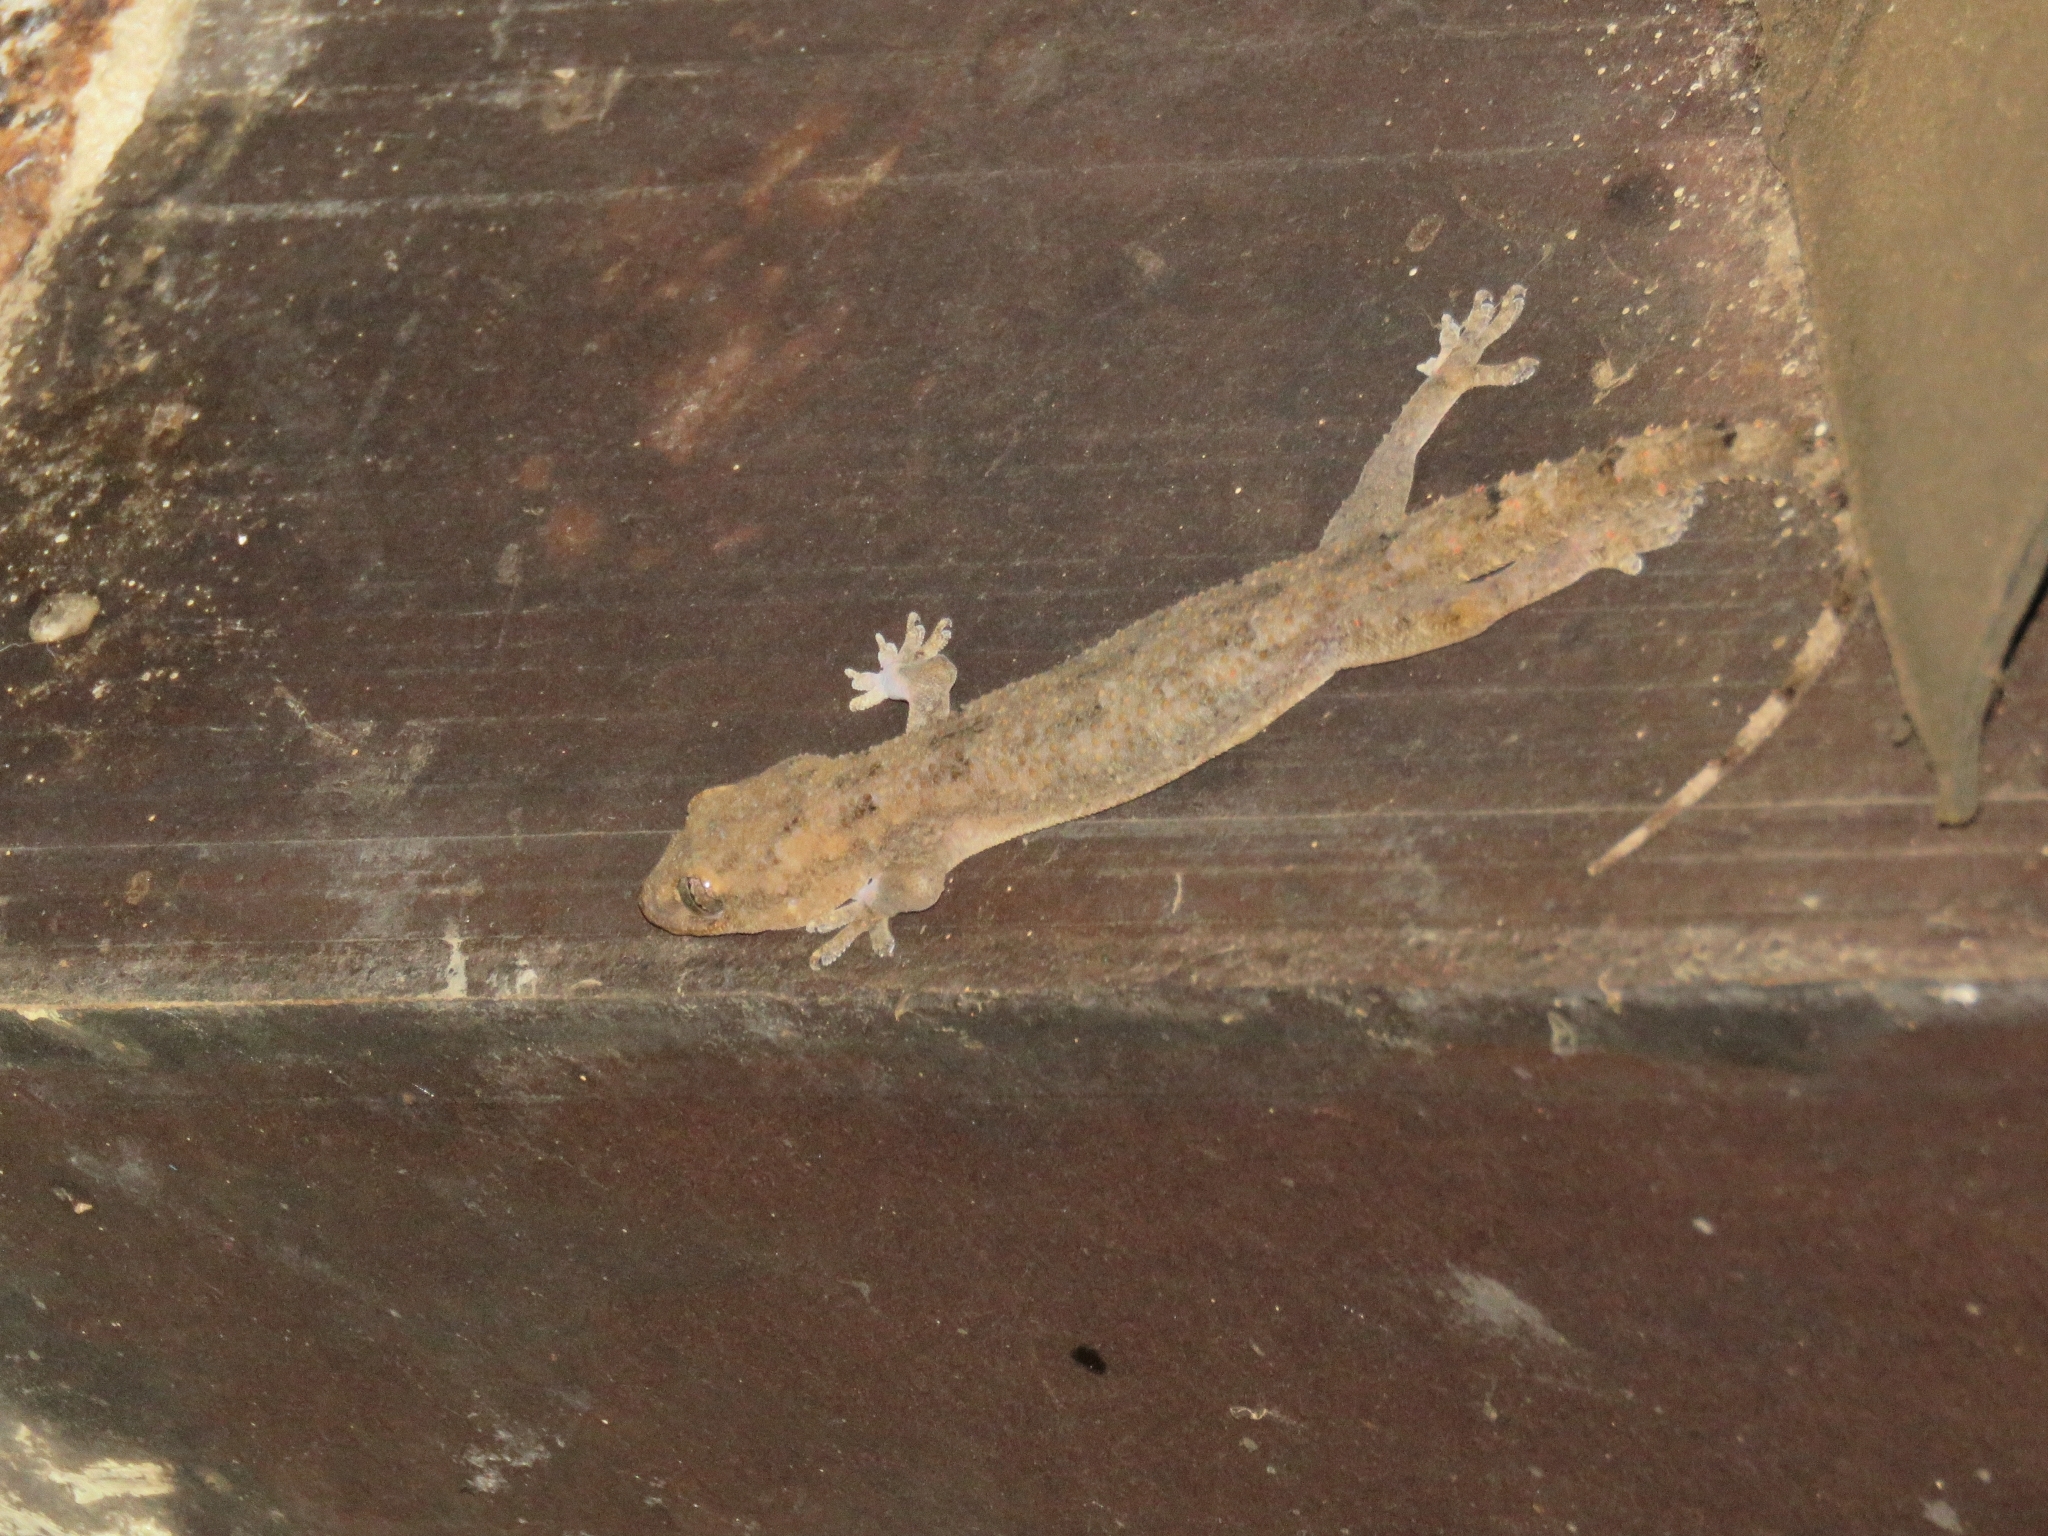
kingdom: Animalia
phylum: Chordata
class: Squamata
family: Gekkonidae
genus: Hemidactylus
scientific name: Hemidactylus mabouia
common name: House gecko
